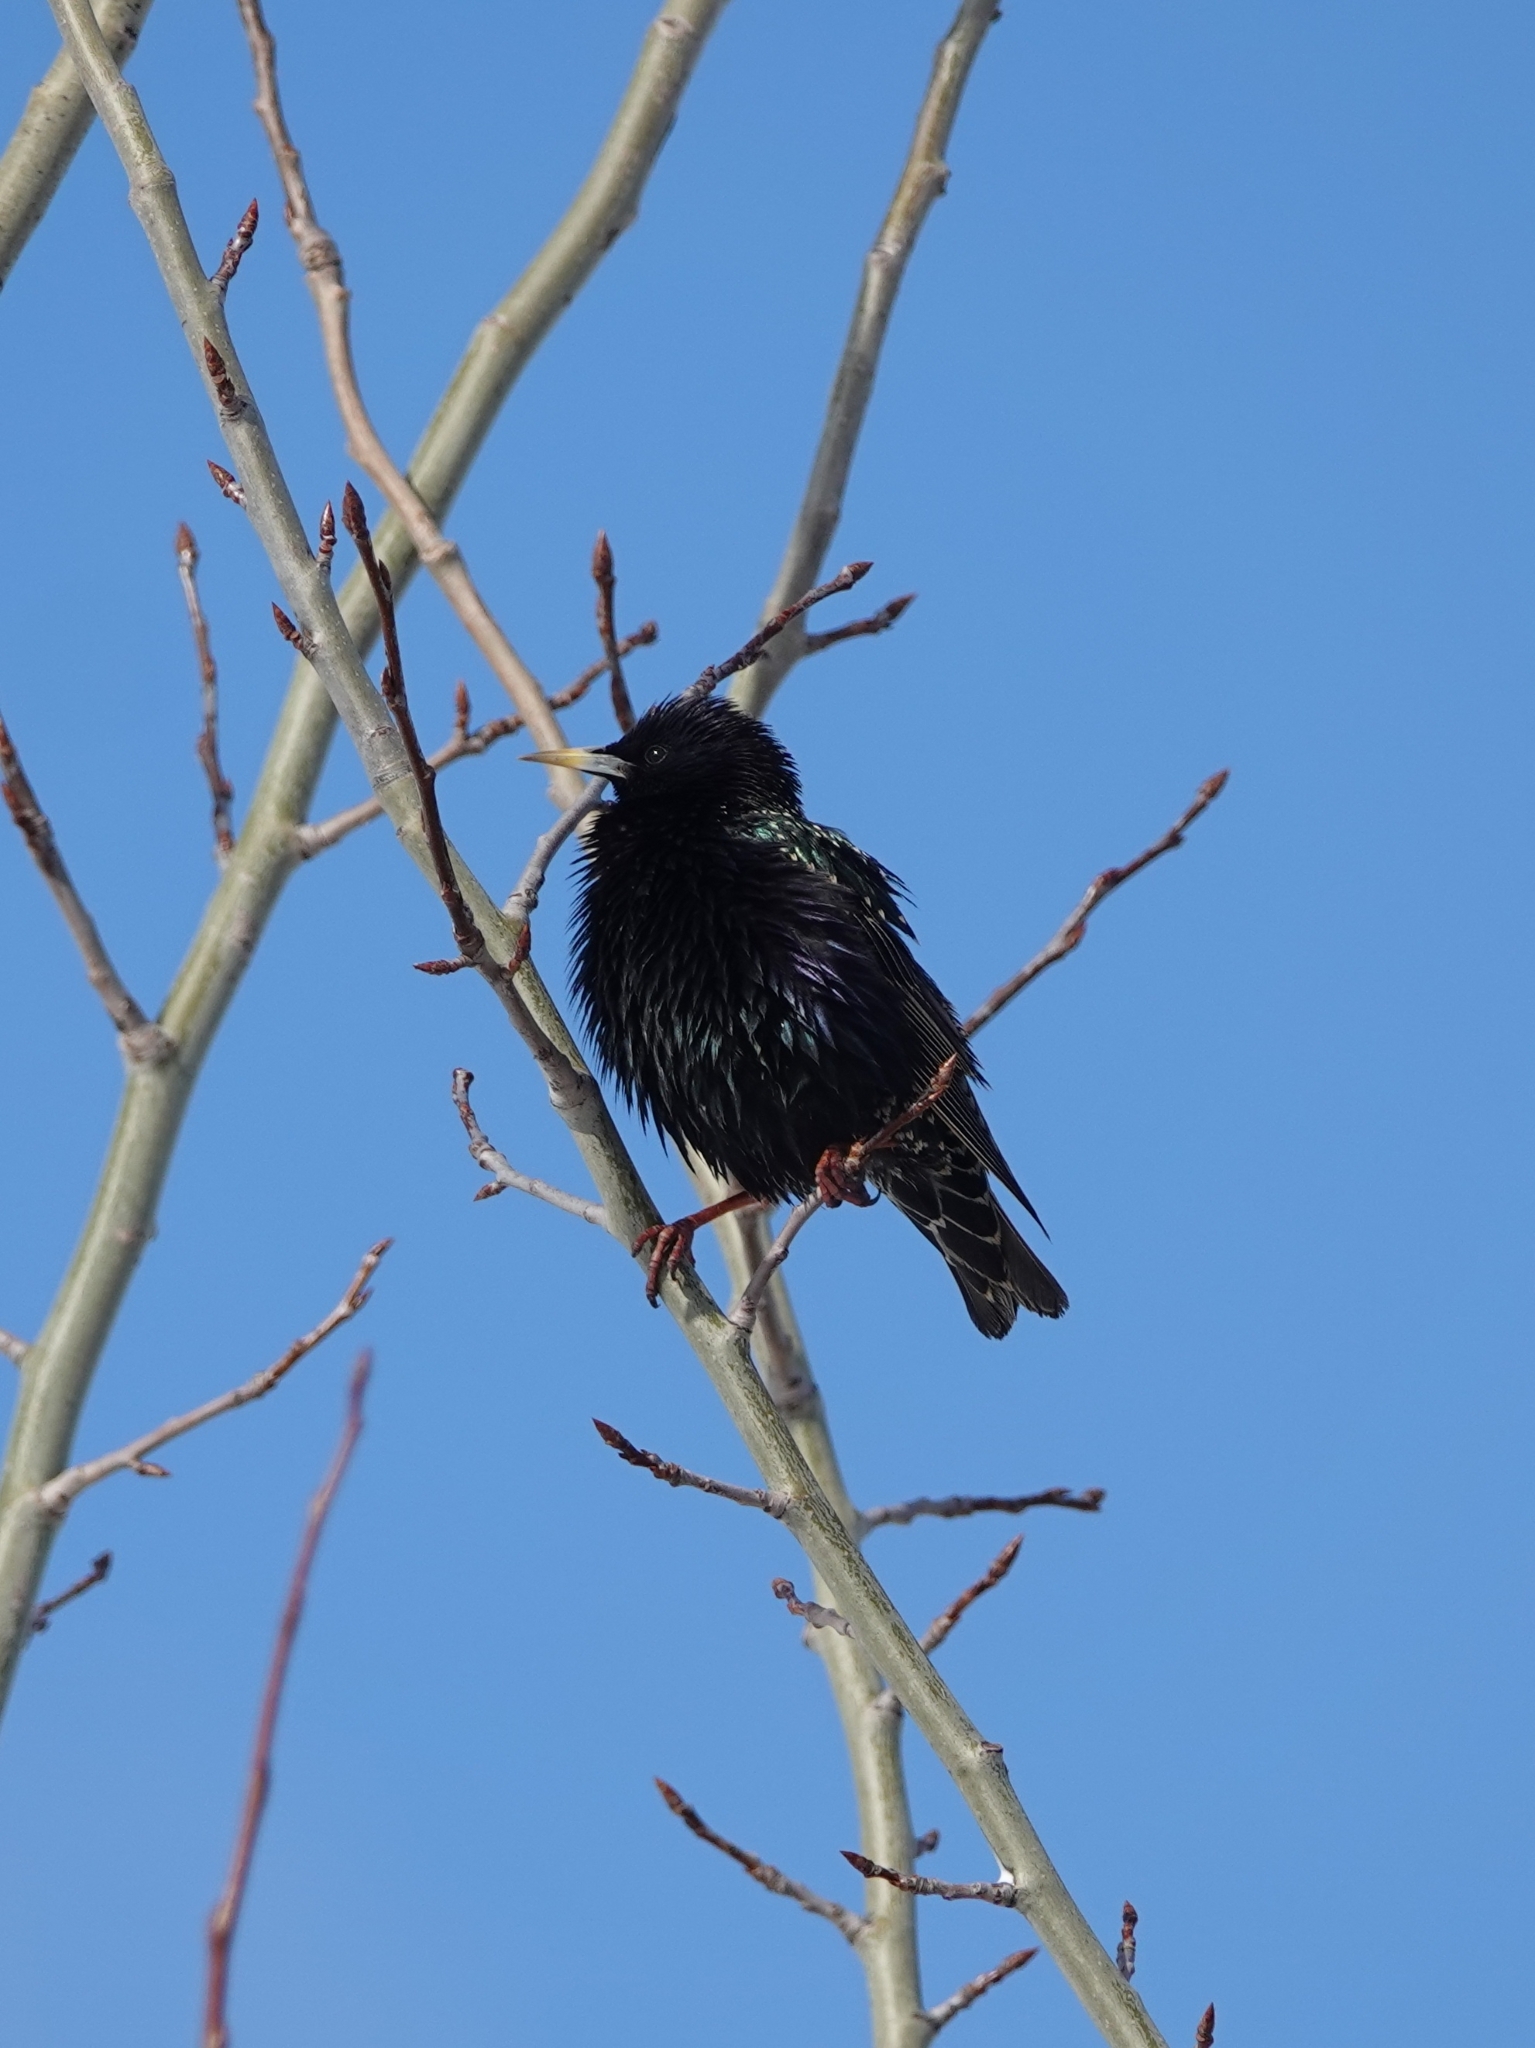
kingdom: Animalia
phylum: Chordata
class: Aves
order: Passeriformes
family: Sturnidae
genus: Sturnus
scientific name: Sturnus vulgaris
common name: Common starling
